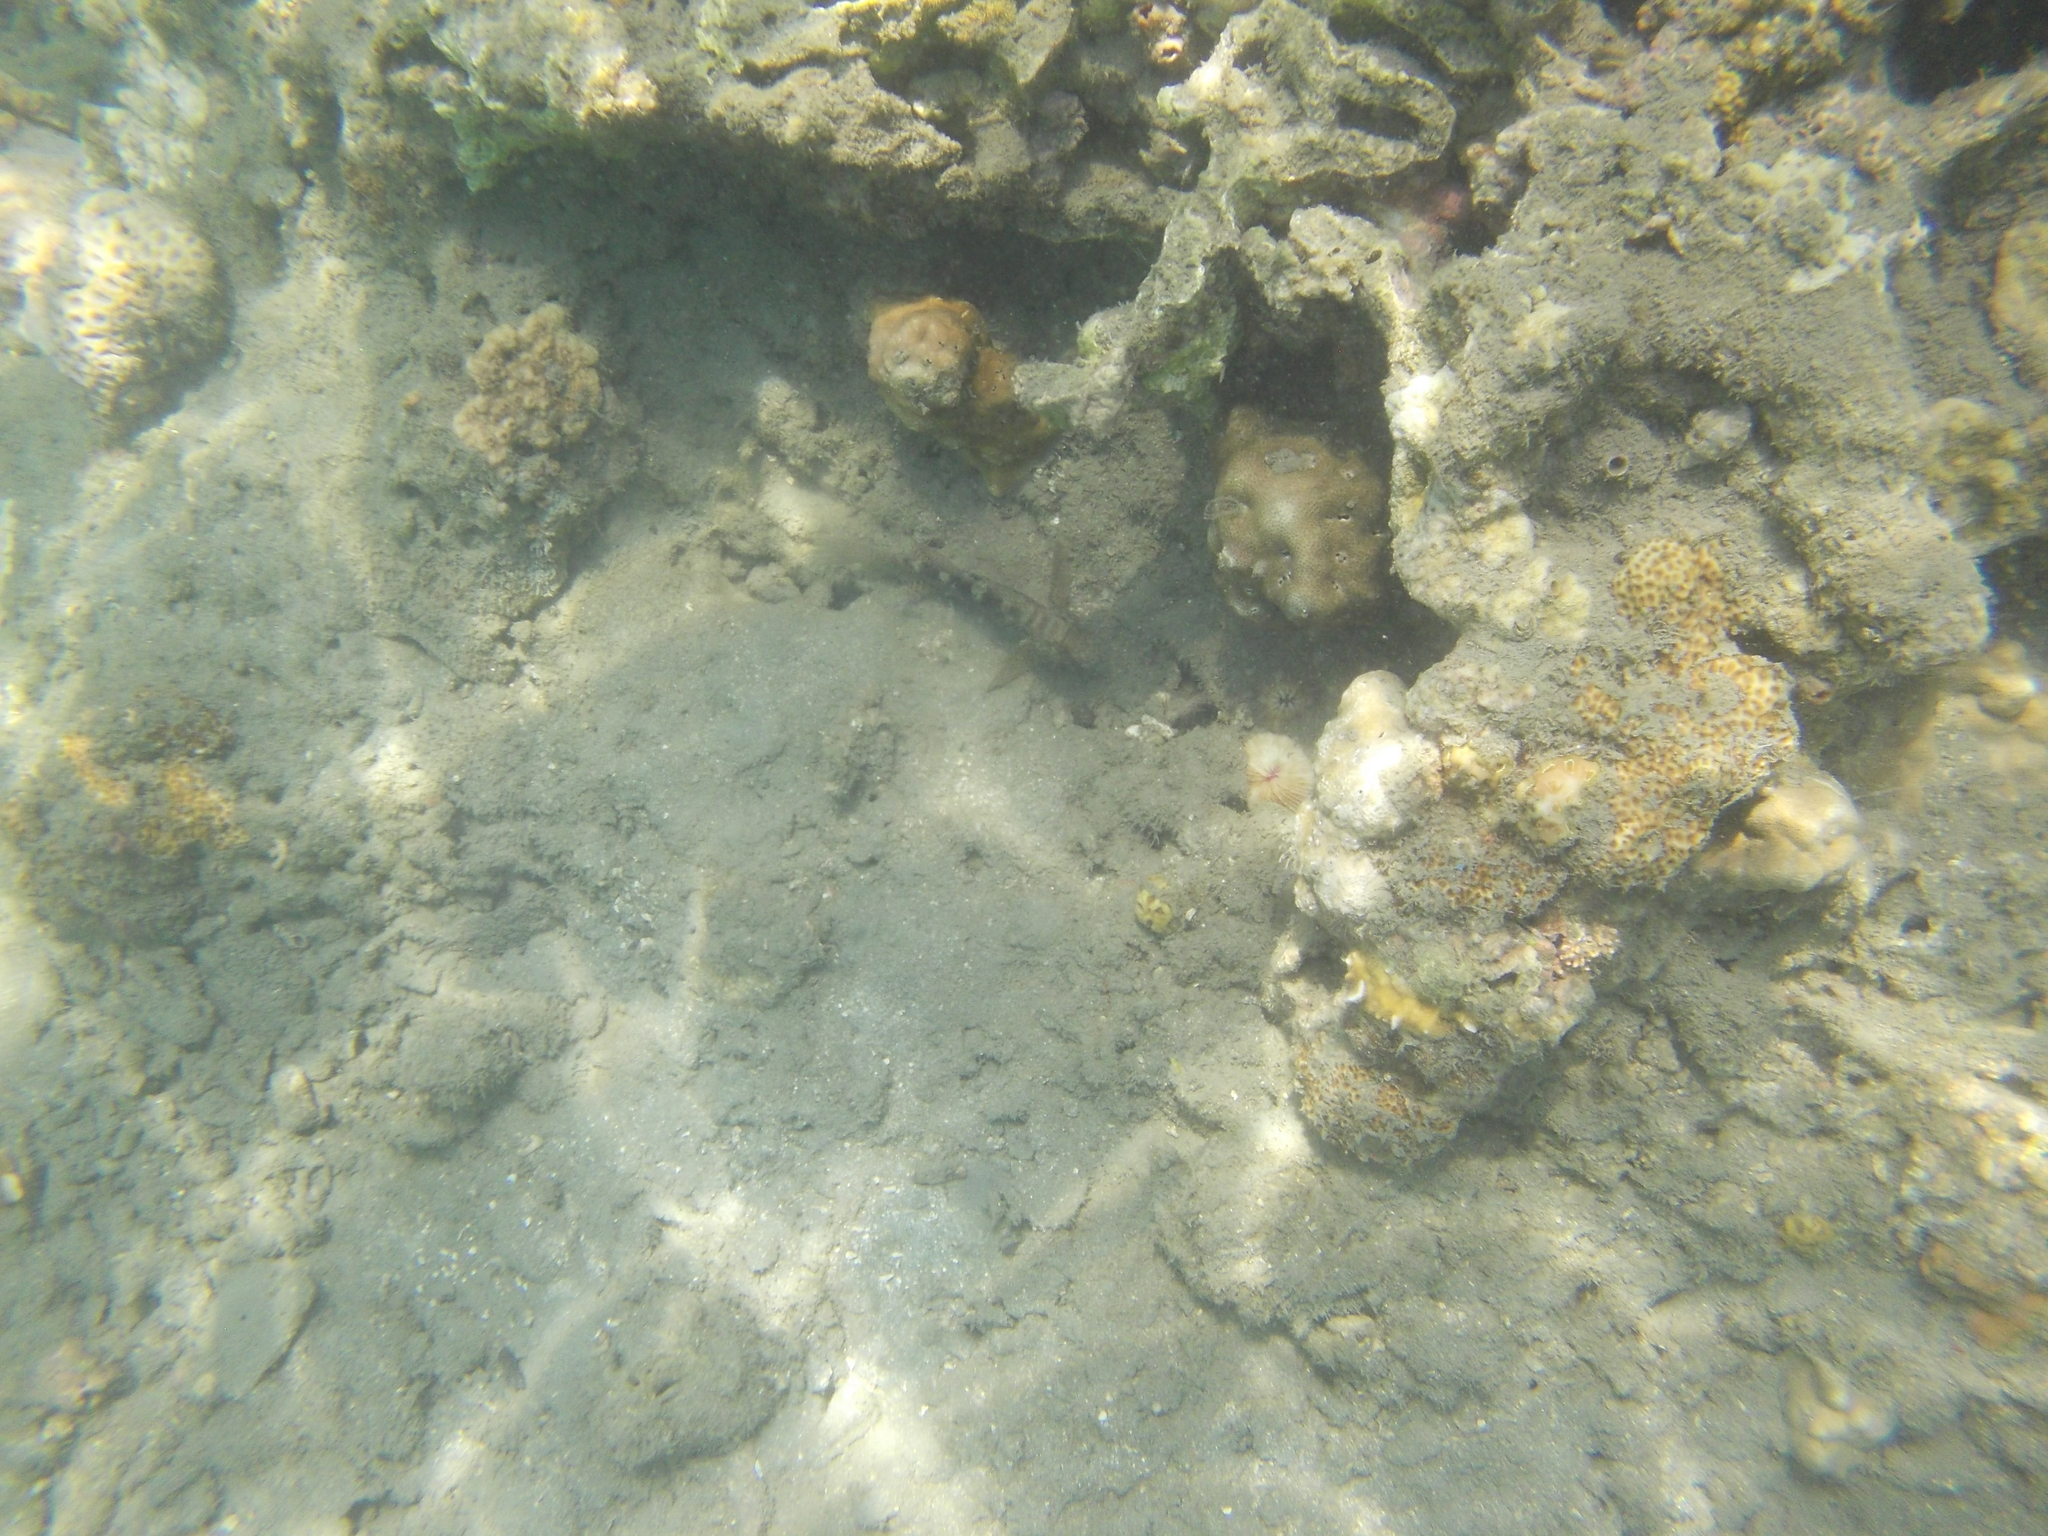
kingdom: Animalia
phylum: Chordata
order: Perciformes
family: Gobiidae
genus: Exyrias
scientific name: Exyrias belissimus
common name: Mud reef-goby
